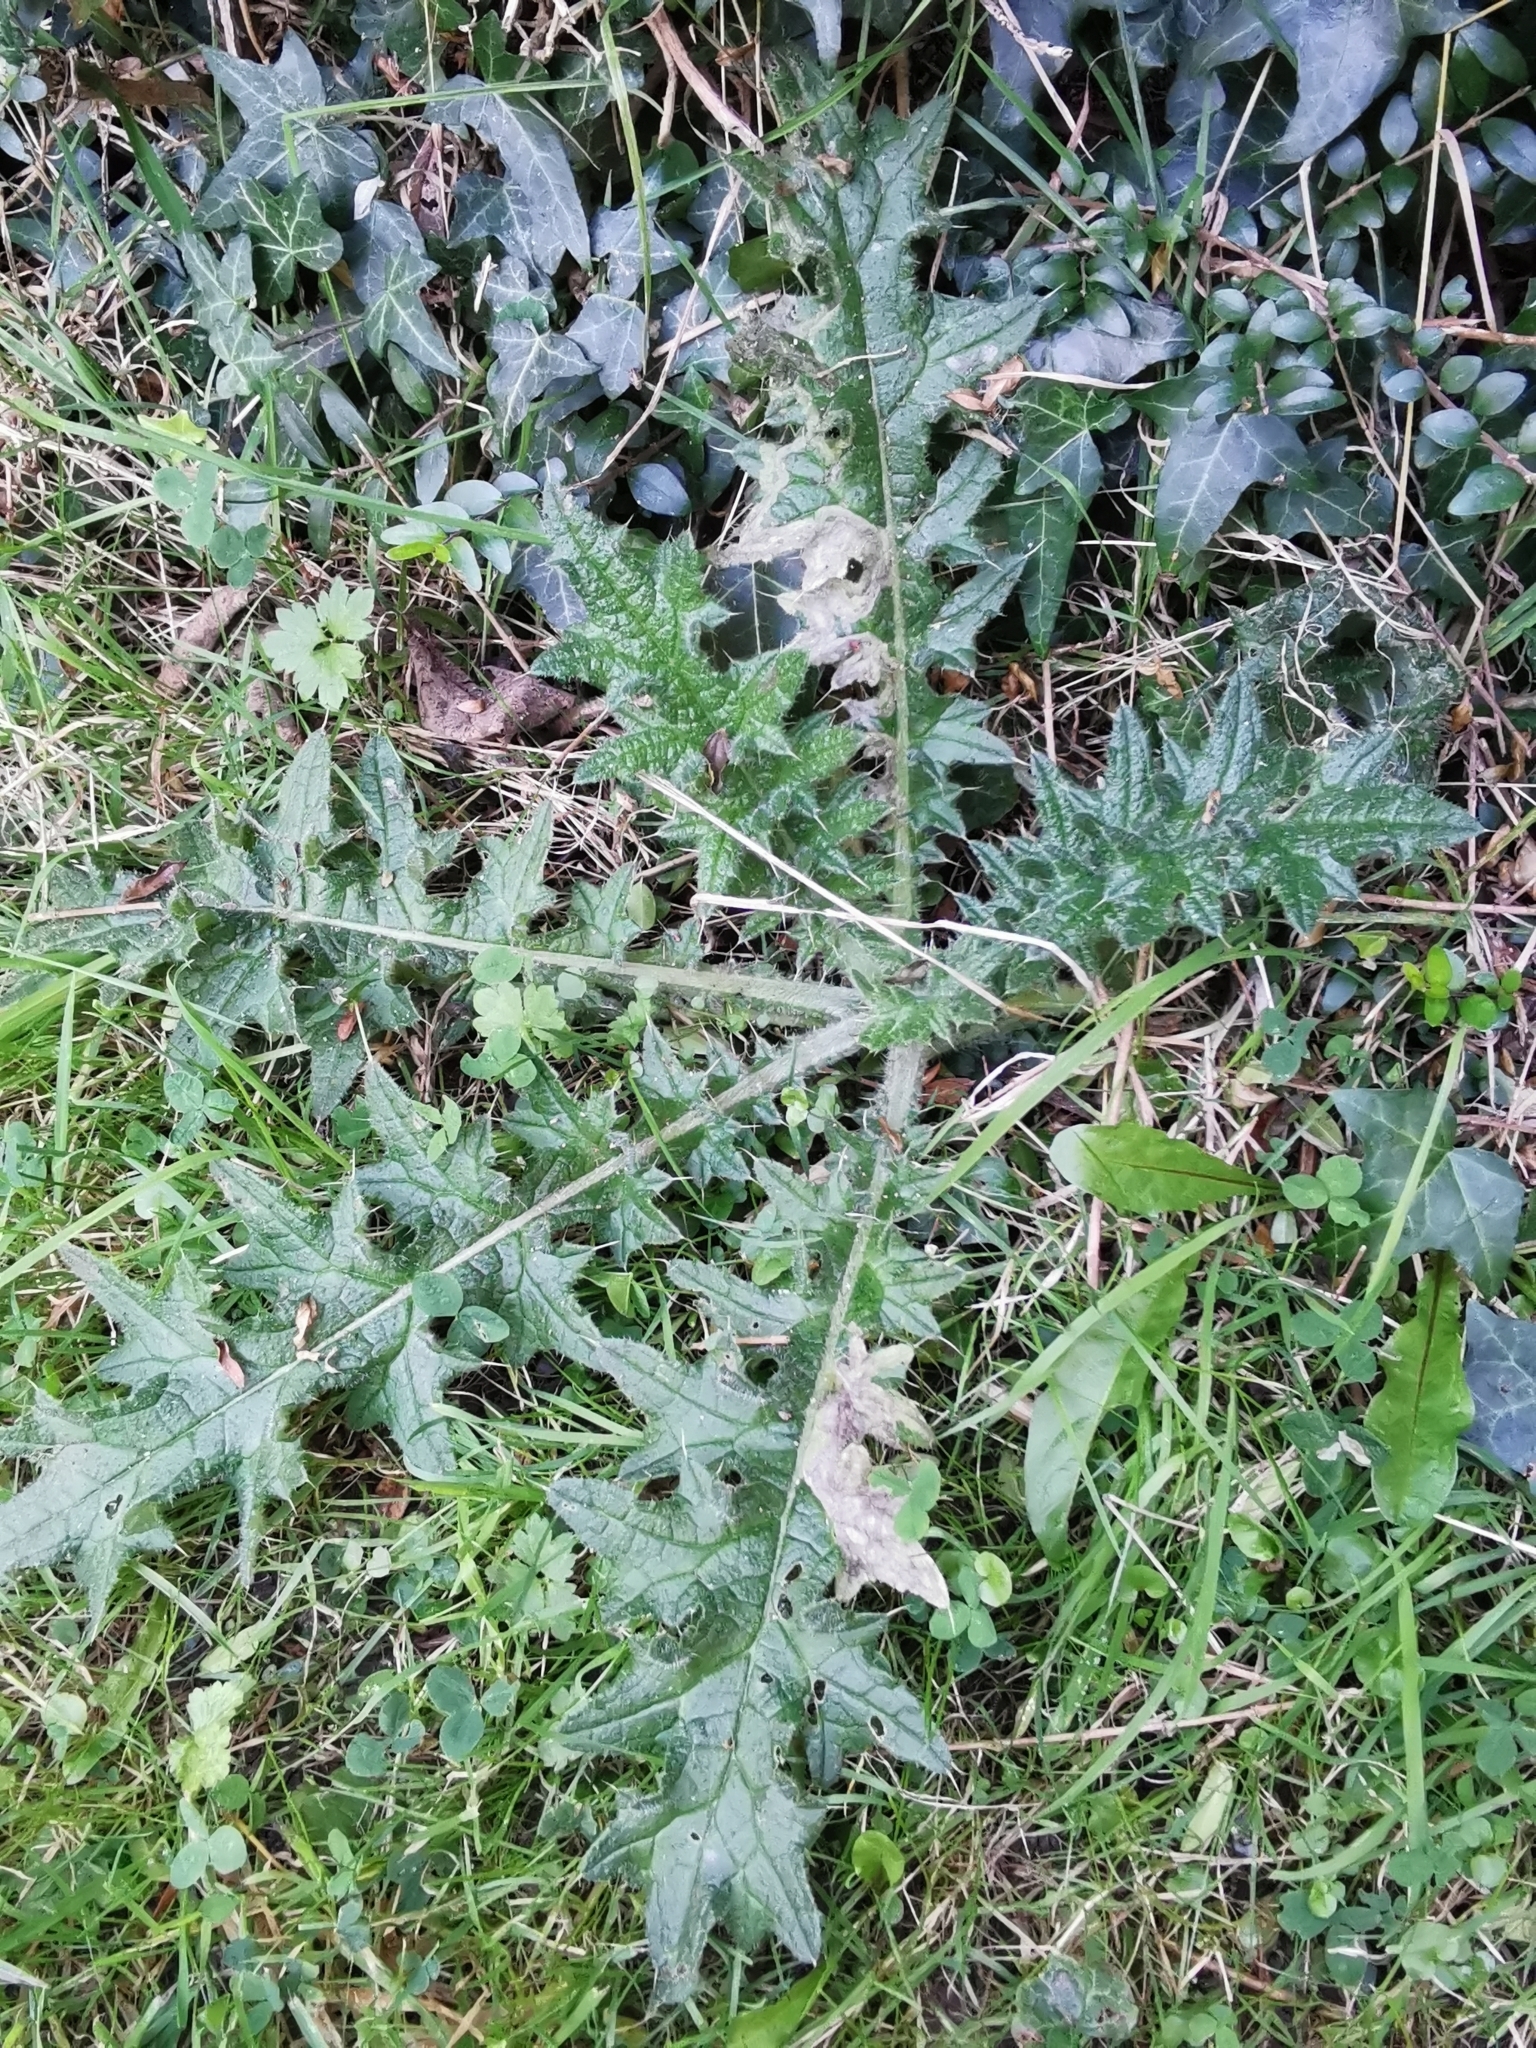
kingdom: Plantae
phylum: Tracheophyta
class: Magnoliopsida
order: Asterales
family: Asteraceae
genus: Cirsium
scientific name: Cirsium vulgare
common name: Bull thistle
